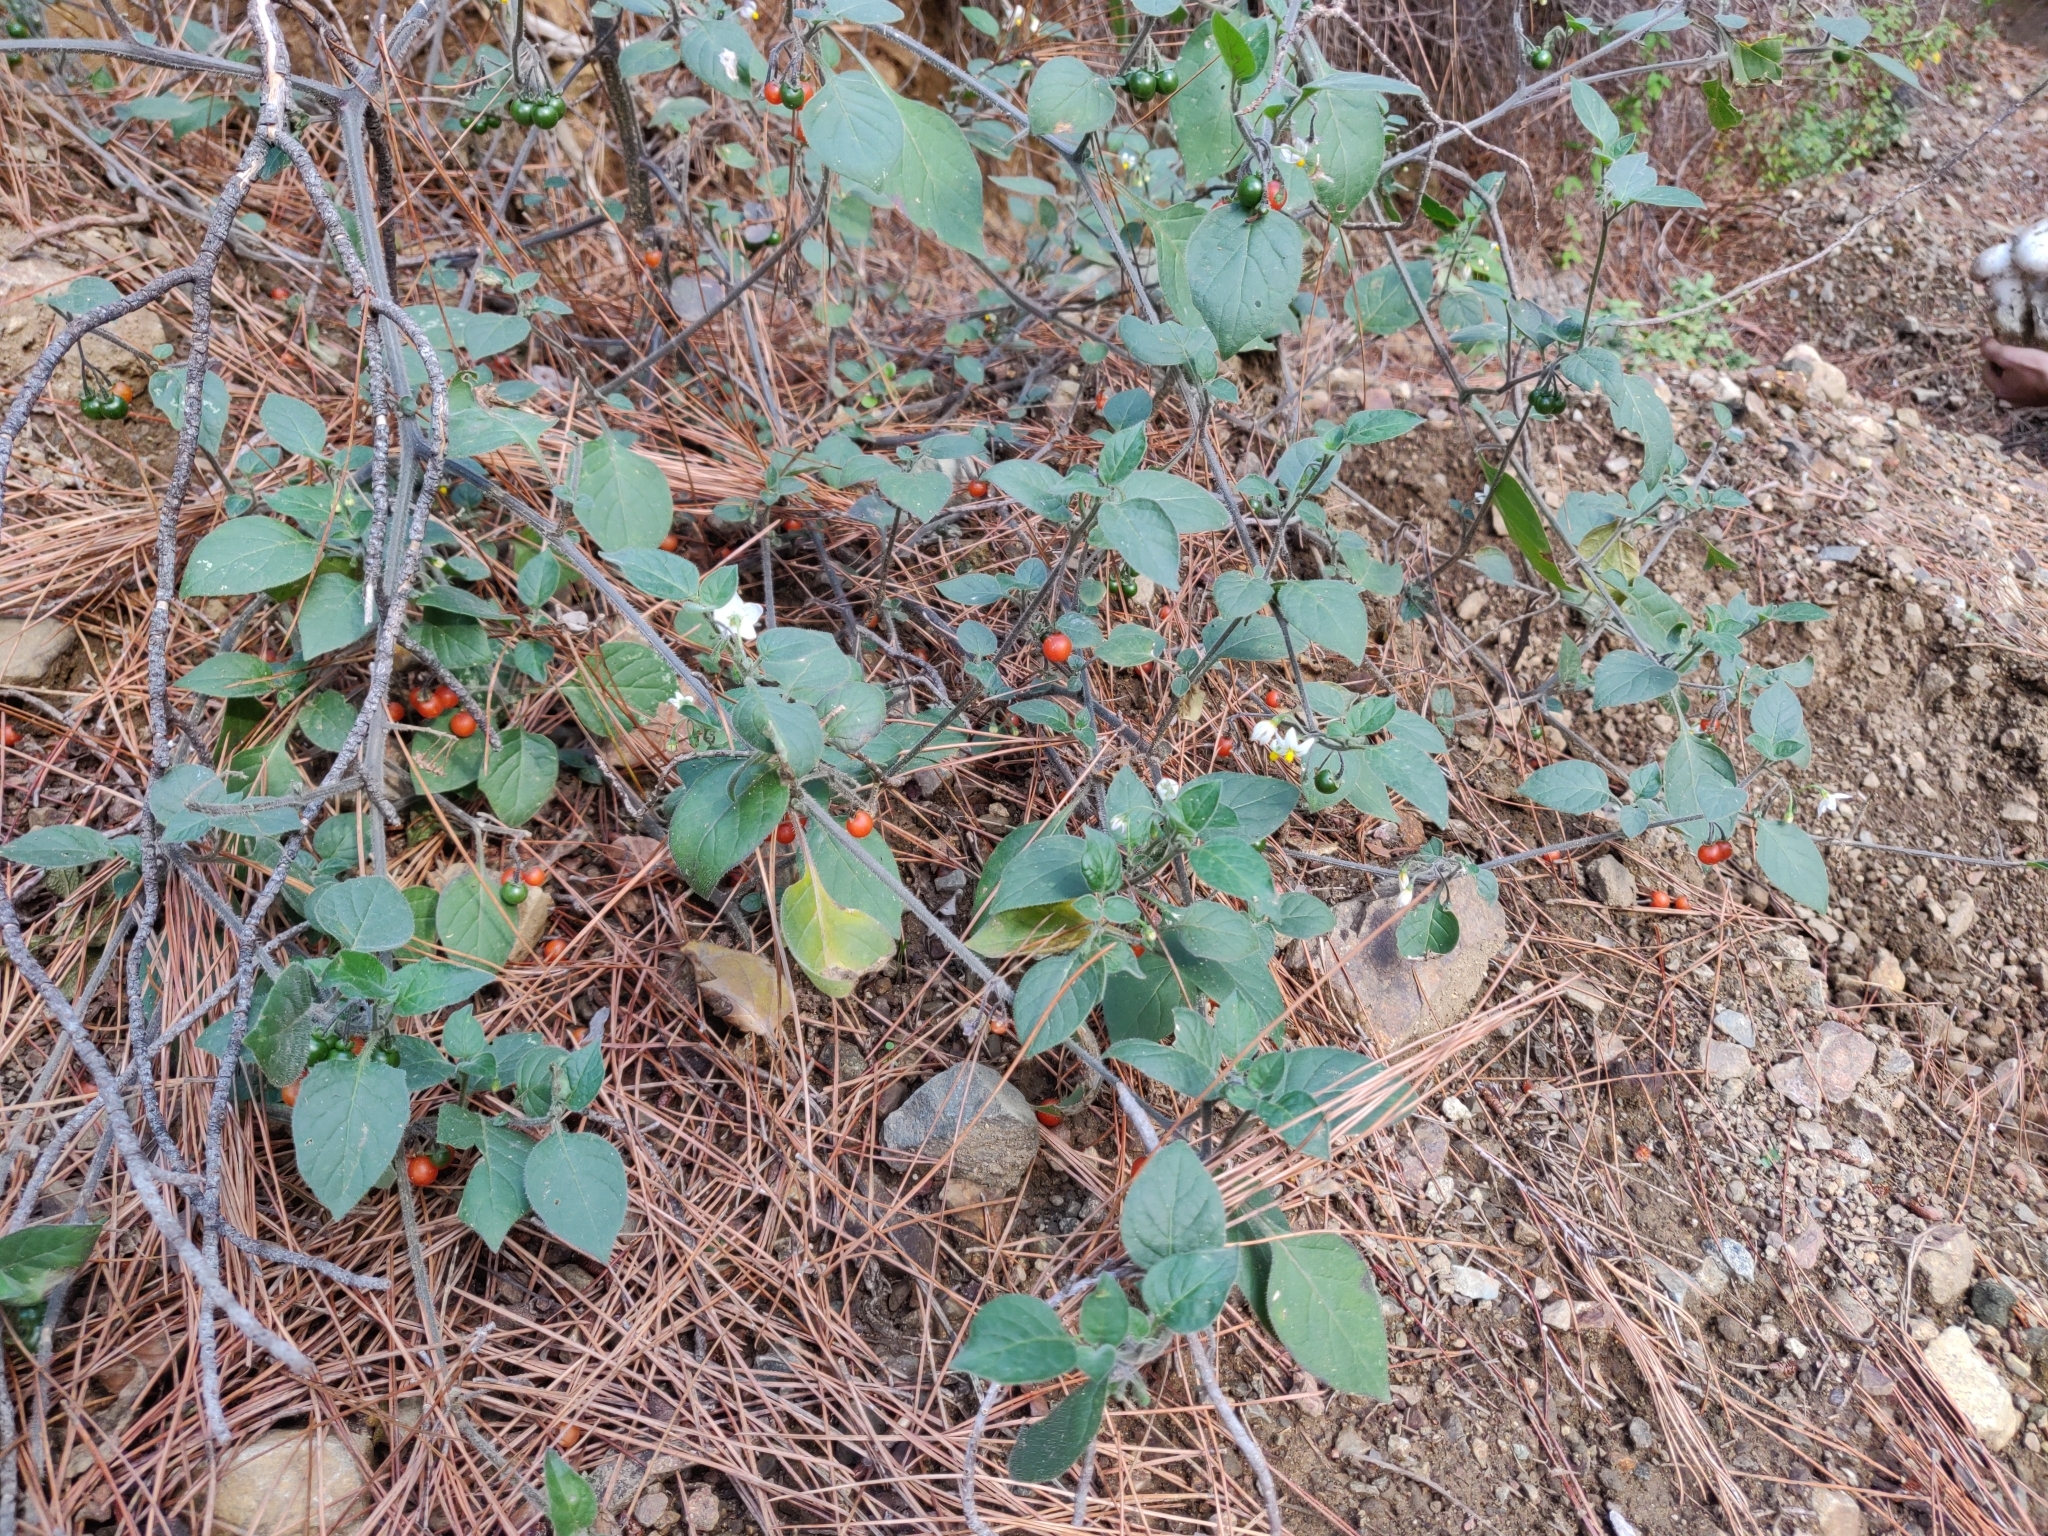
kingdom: Plantae
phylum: Tracheophyta
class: Magnoliopsida
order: Solanales
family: Solanaceae
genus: Solanum
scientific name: Solanum villosum
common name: Red nightshade
